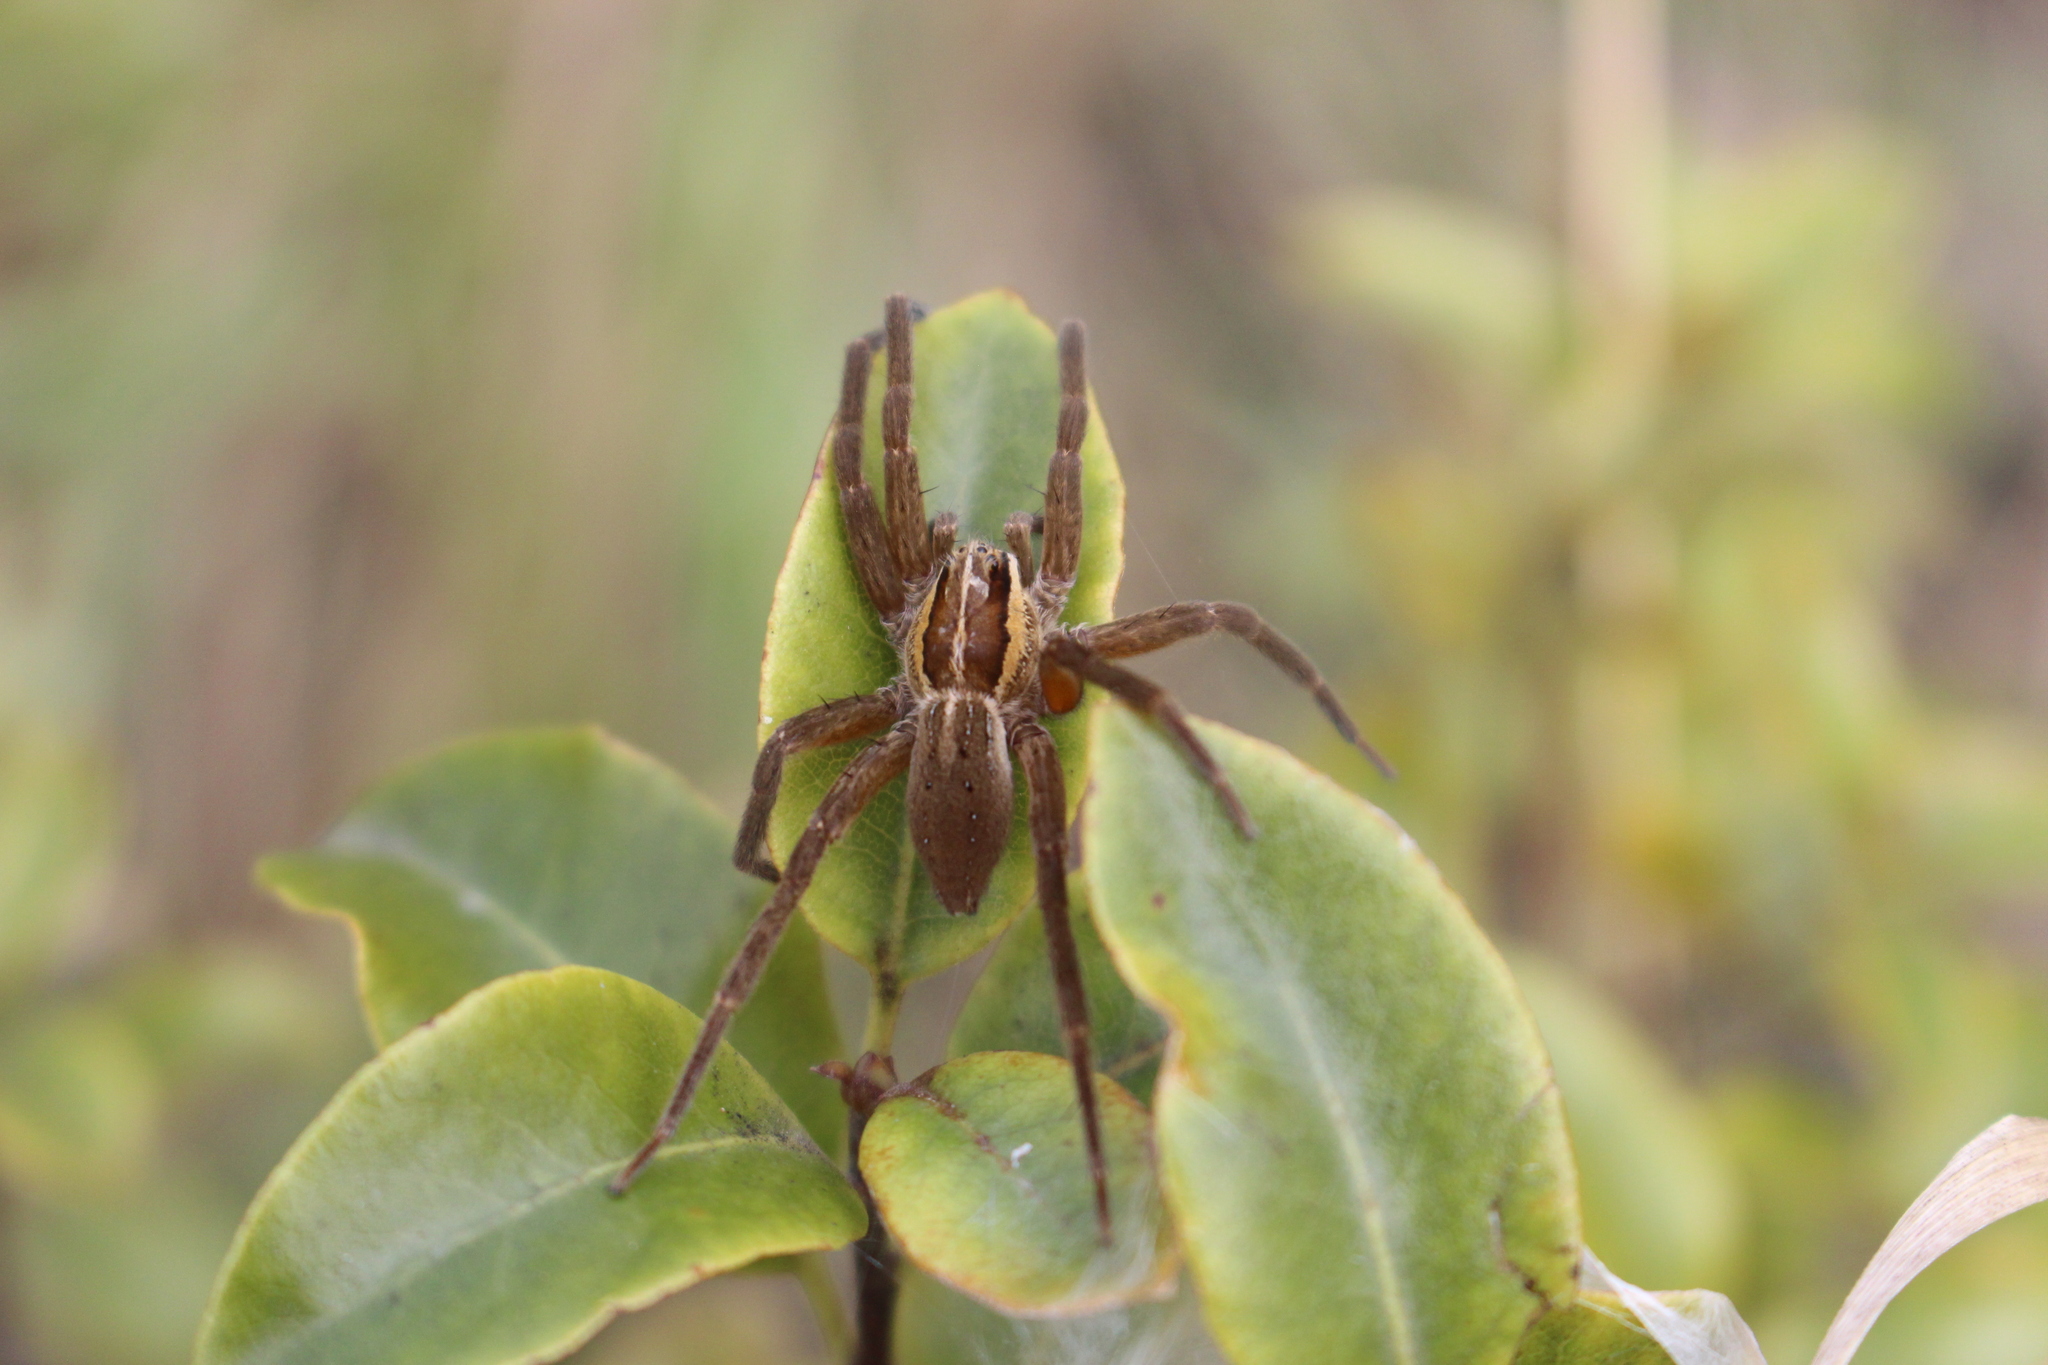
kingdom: Animalia
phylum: Arthropoda
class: Arachnida
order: Araneae
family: Pisauridae
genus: Dolomedes
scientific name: Dolomedes minor
